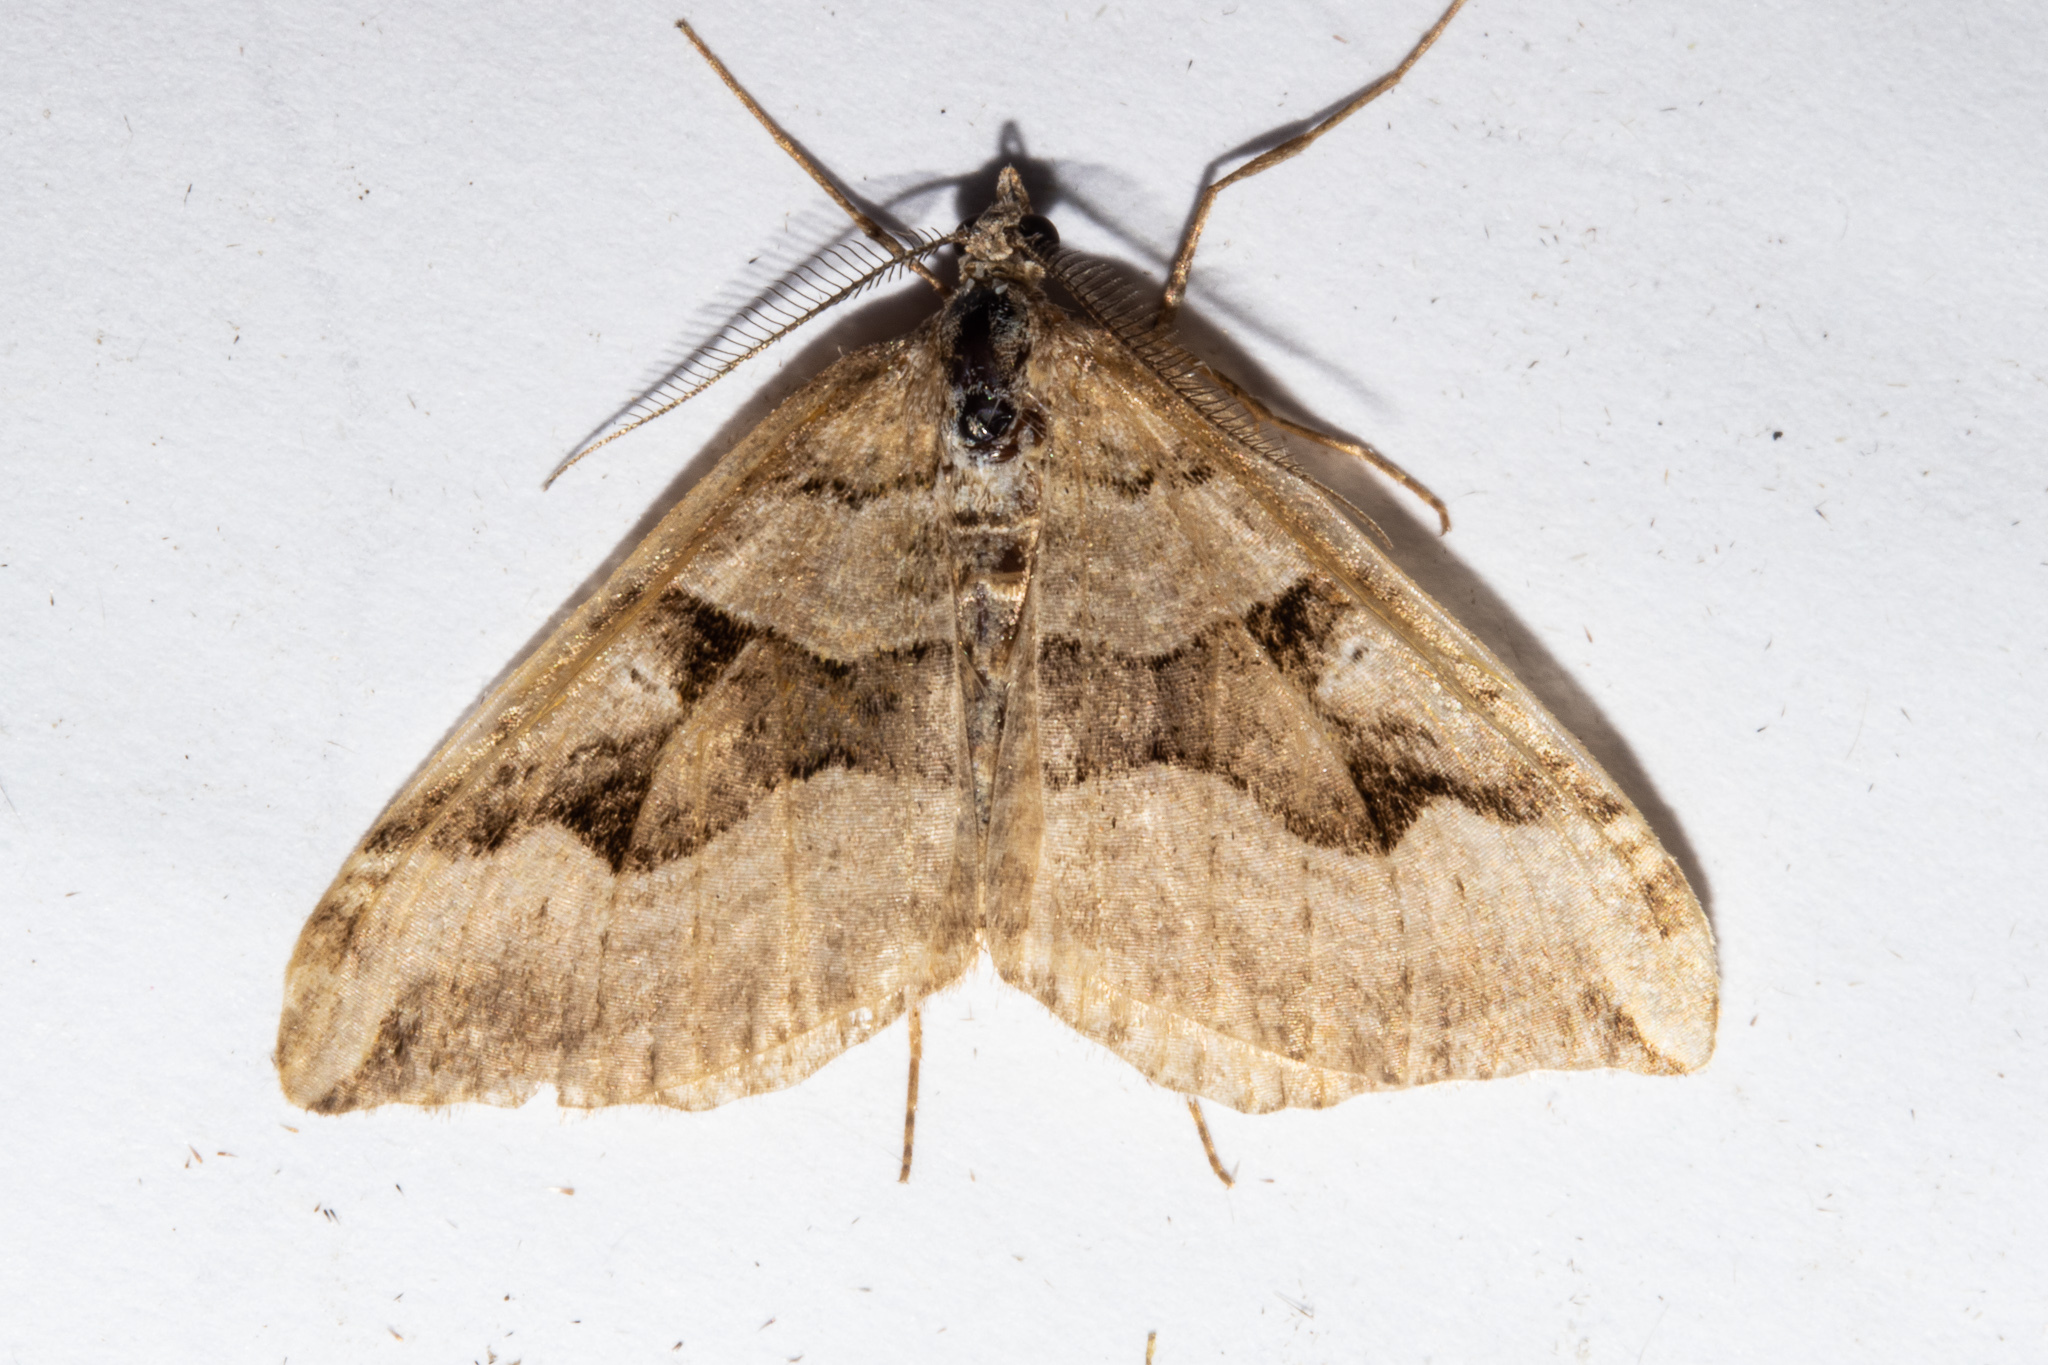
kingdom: Animalia
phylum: Arthropoda
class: Insecta
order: Lepidoptera
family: Geometridae
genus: Xanthorhoe
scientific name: Xanthorhoe semifissata
